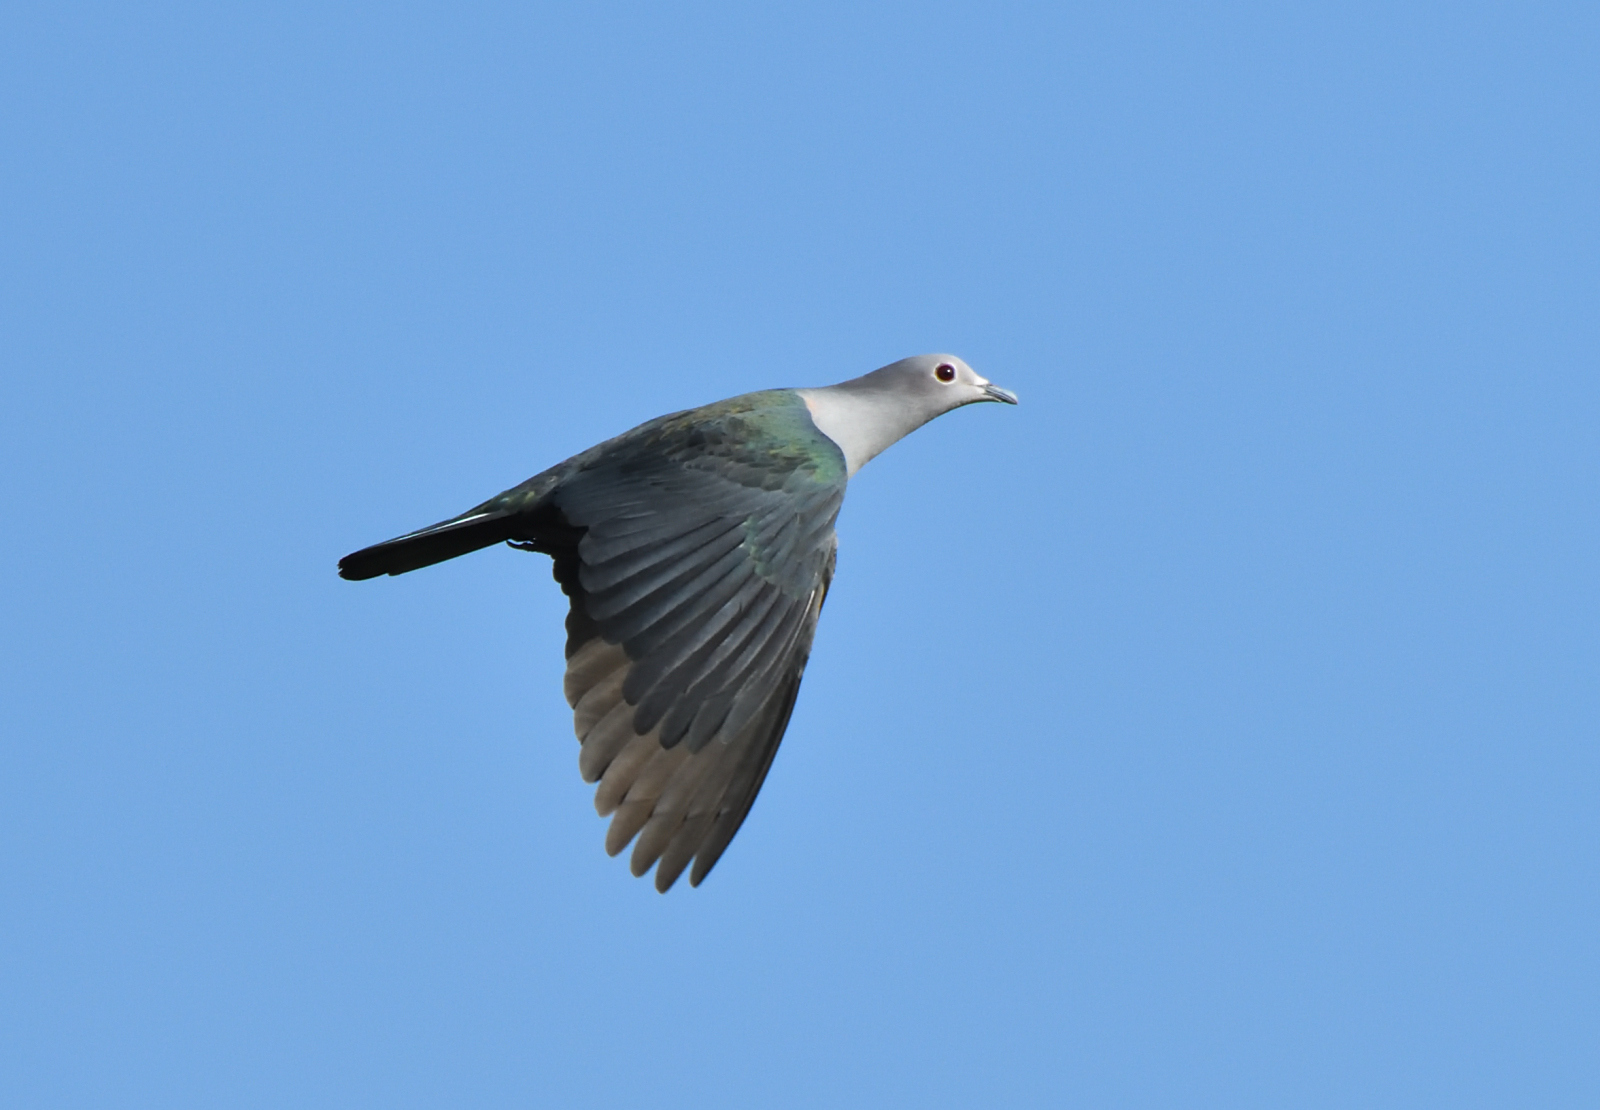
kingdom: Animalia
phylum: Chordata
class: Aves
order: Columbiformes
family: Columbidae
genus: Ducula
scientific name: Ducula aenea
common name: Green imperial pigeon
